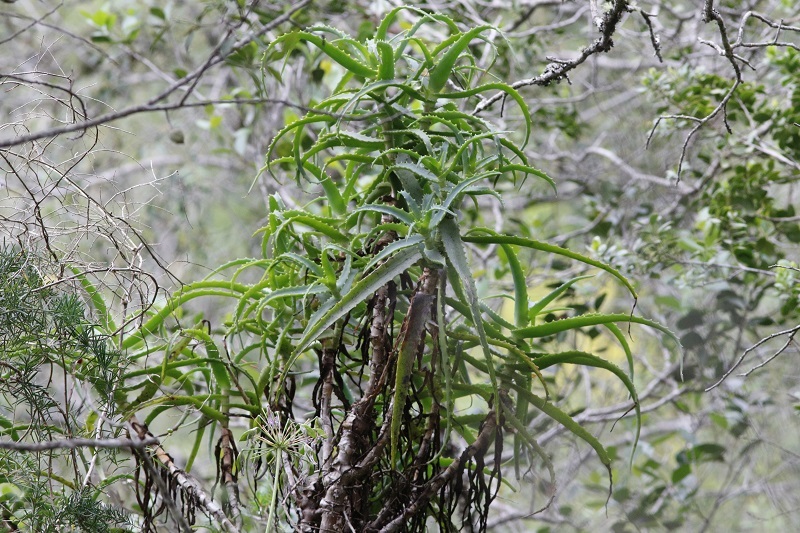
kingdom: Plantae
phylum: Tracheophyta
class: Liliopsida
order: Asparagales
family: Asphodelaceae
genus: Aloe
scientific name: Aloe arborescens
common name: Candelabra aloe
